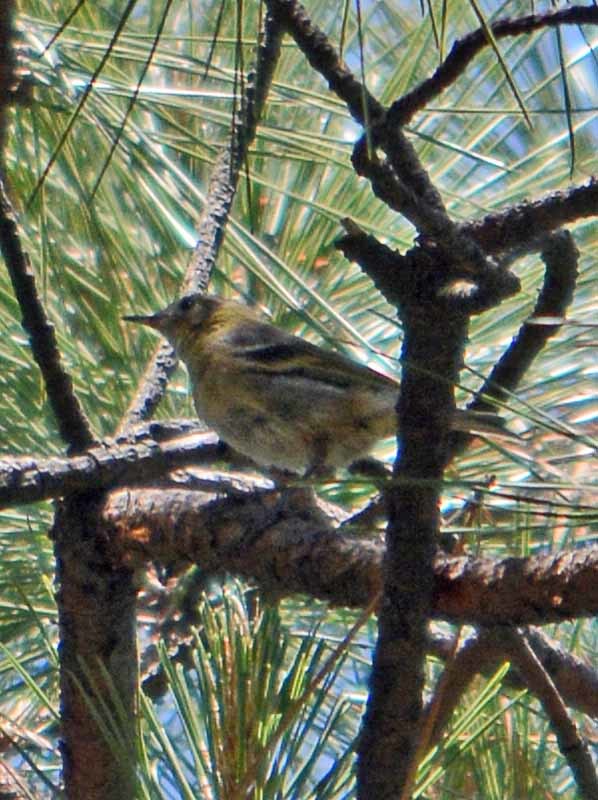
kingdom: Animalia
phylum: Chordata
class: Aves
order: Passeriformes
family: Peucedramidae
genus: Peucedramus
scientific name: Peucedramus taeniatus
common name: Olive warbler
